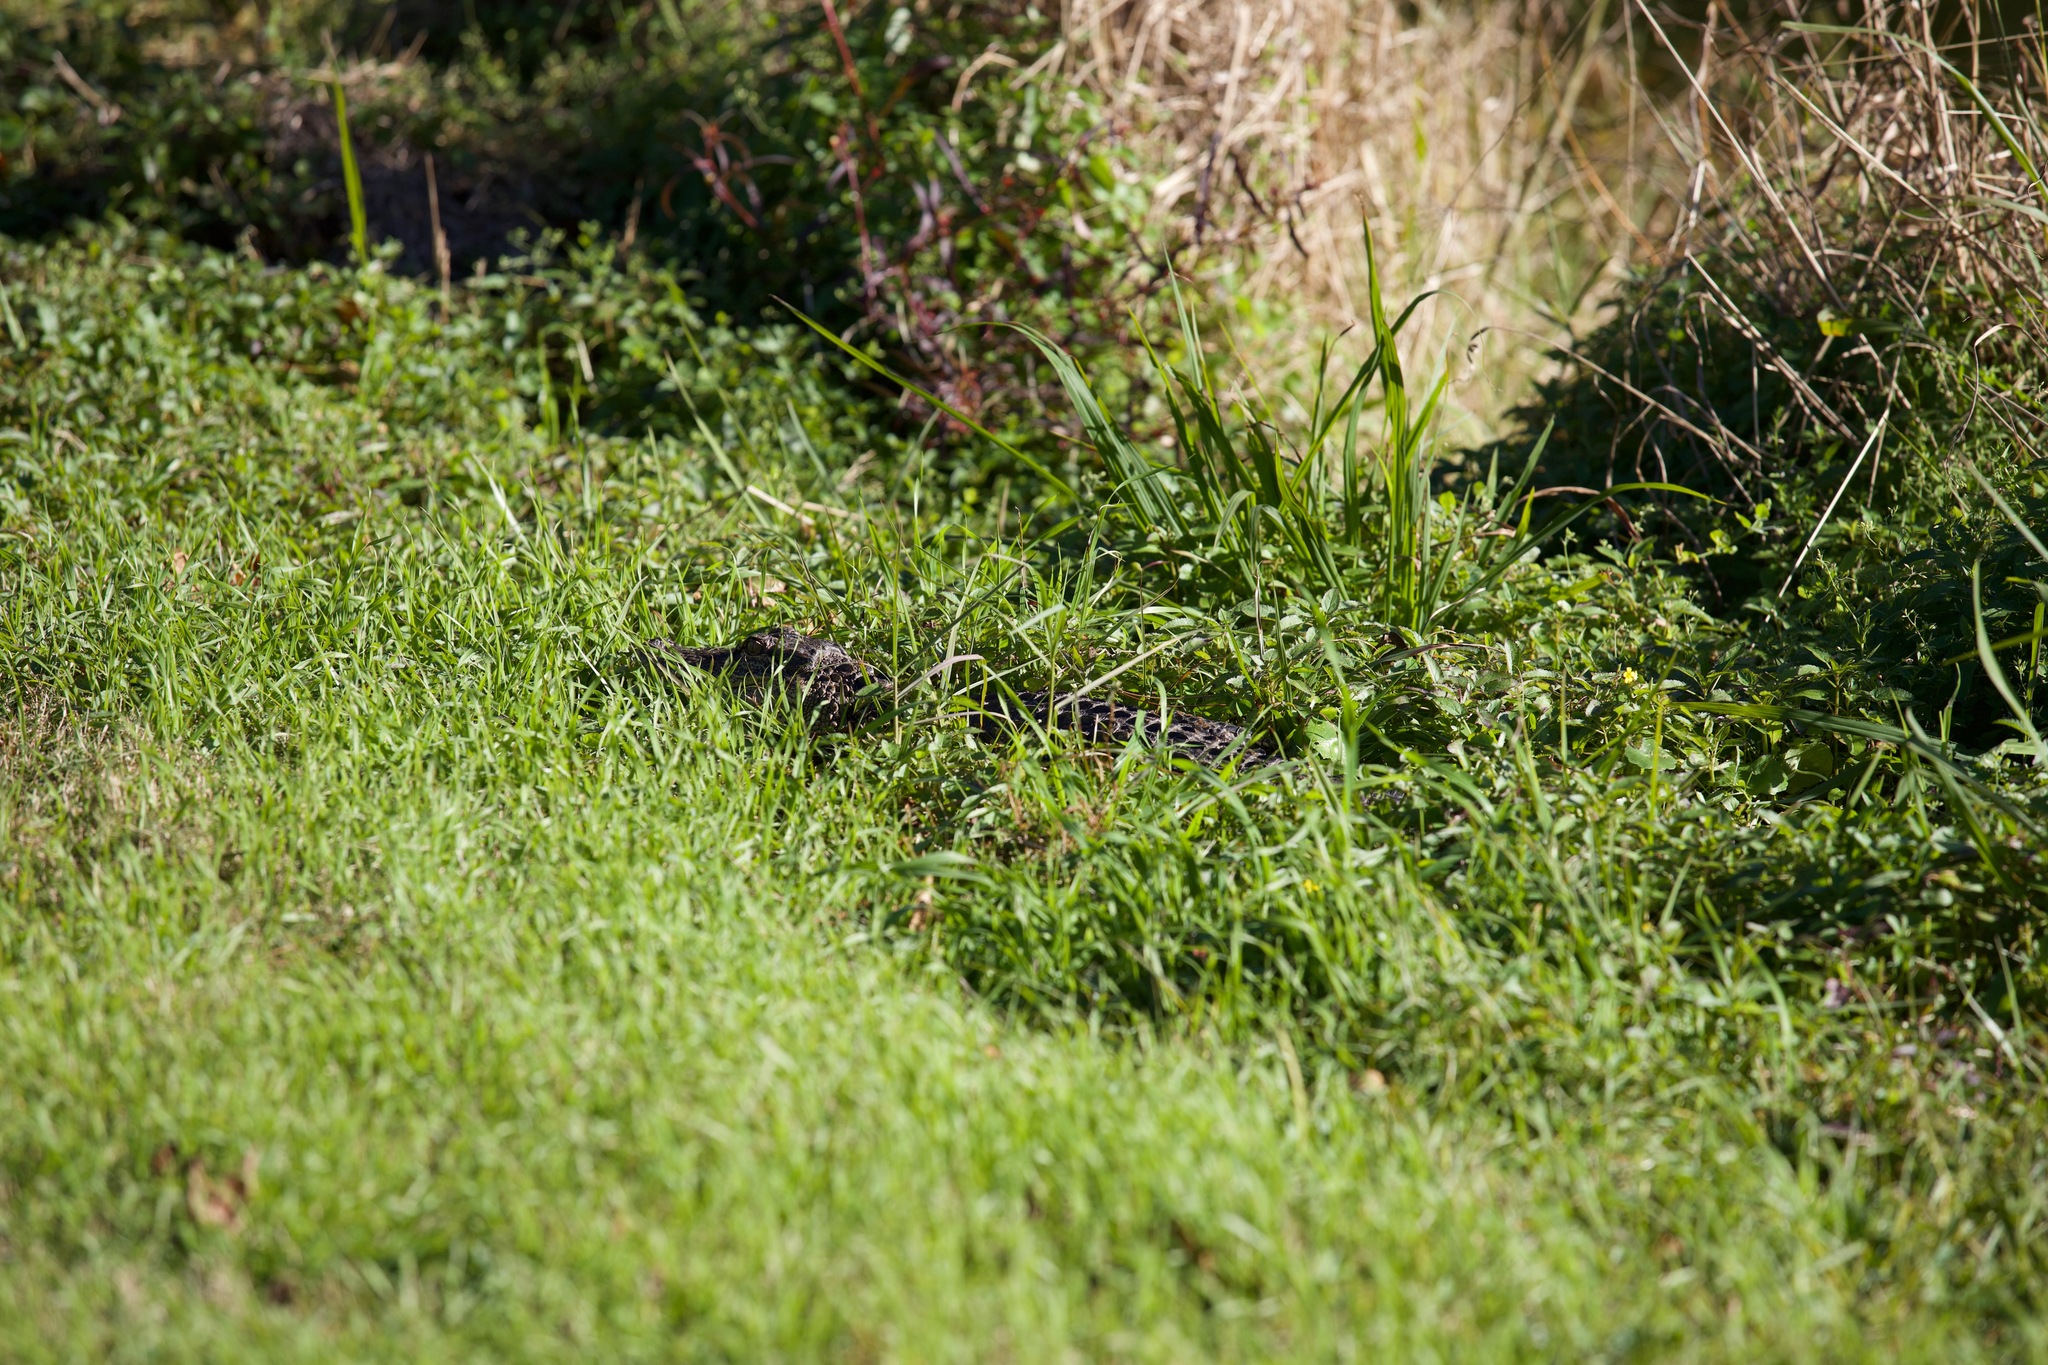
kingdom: Animalia
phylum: Chordata
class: Crocodylia
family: Alligatoridae
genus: Alligator
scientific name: Alligator mississippiensis
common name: American alligator
